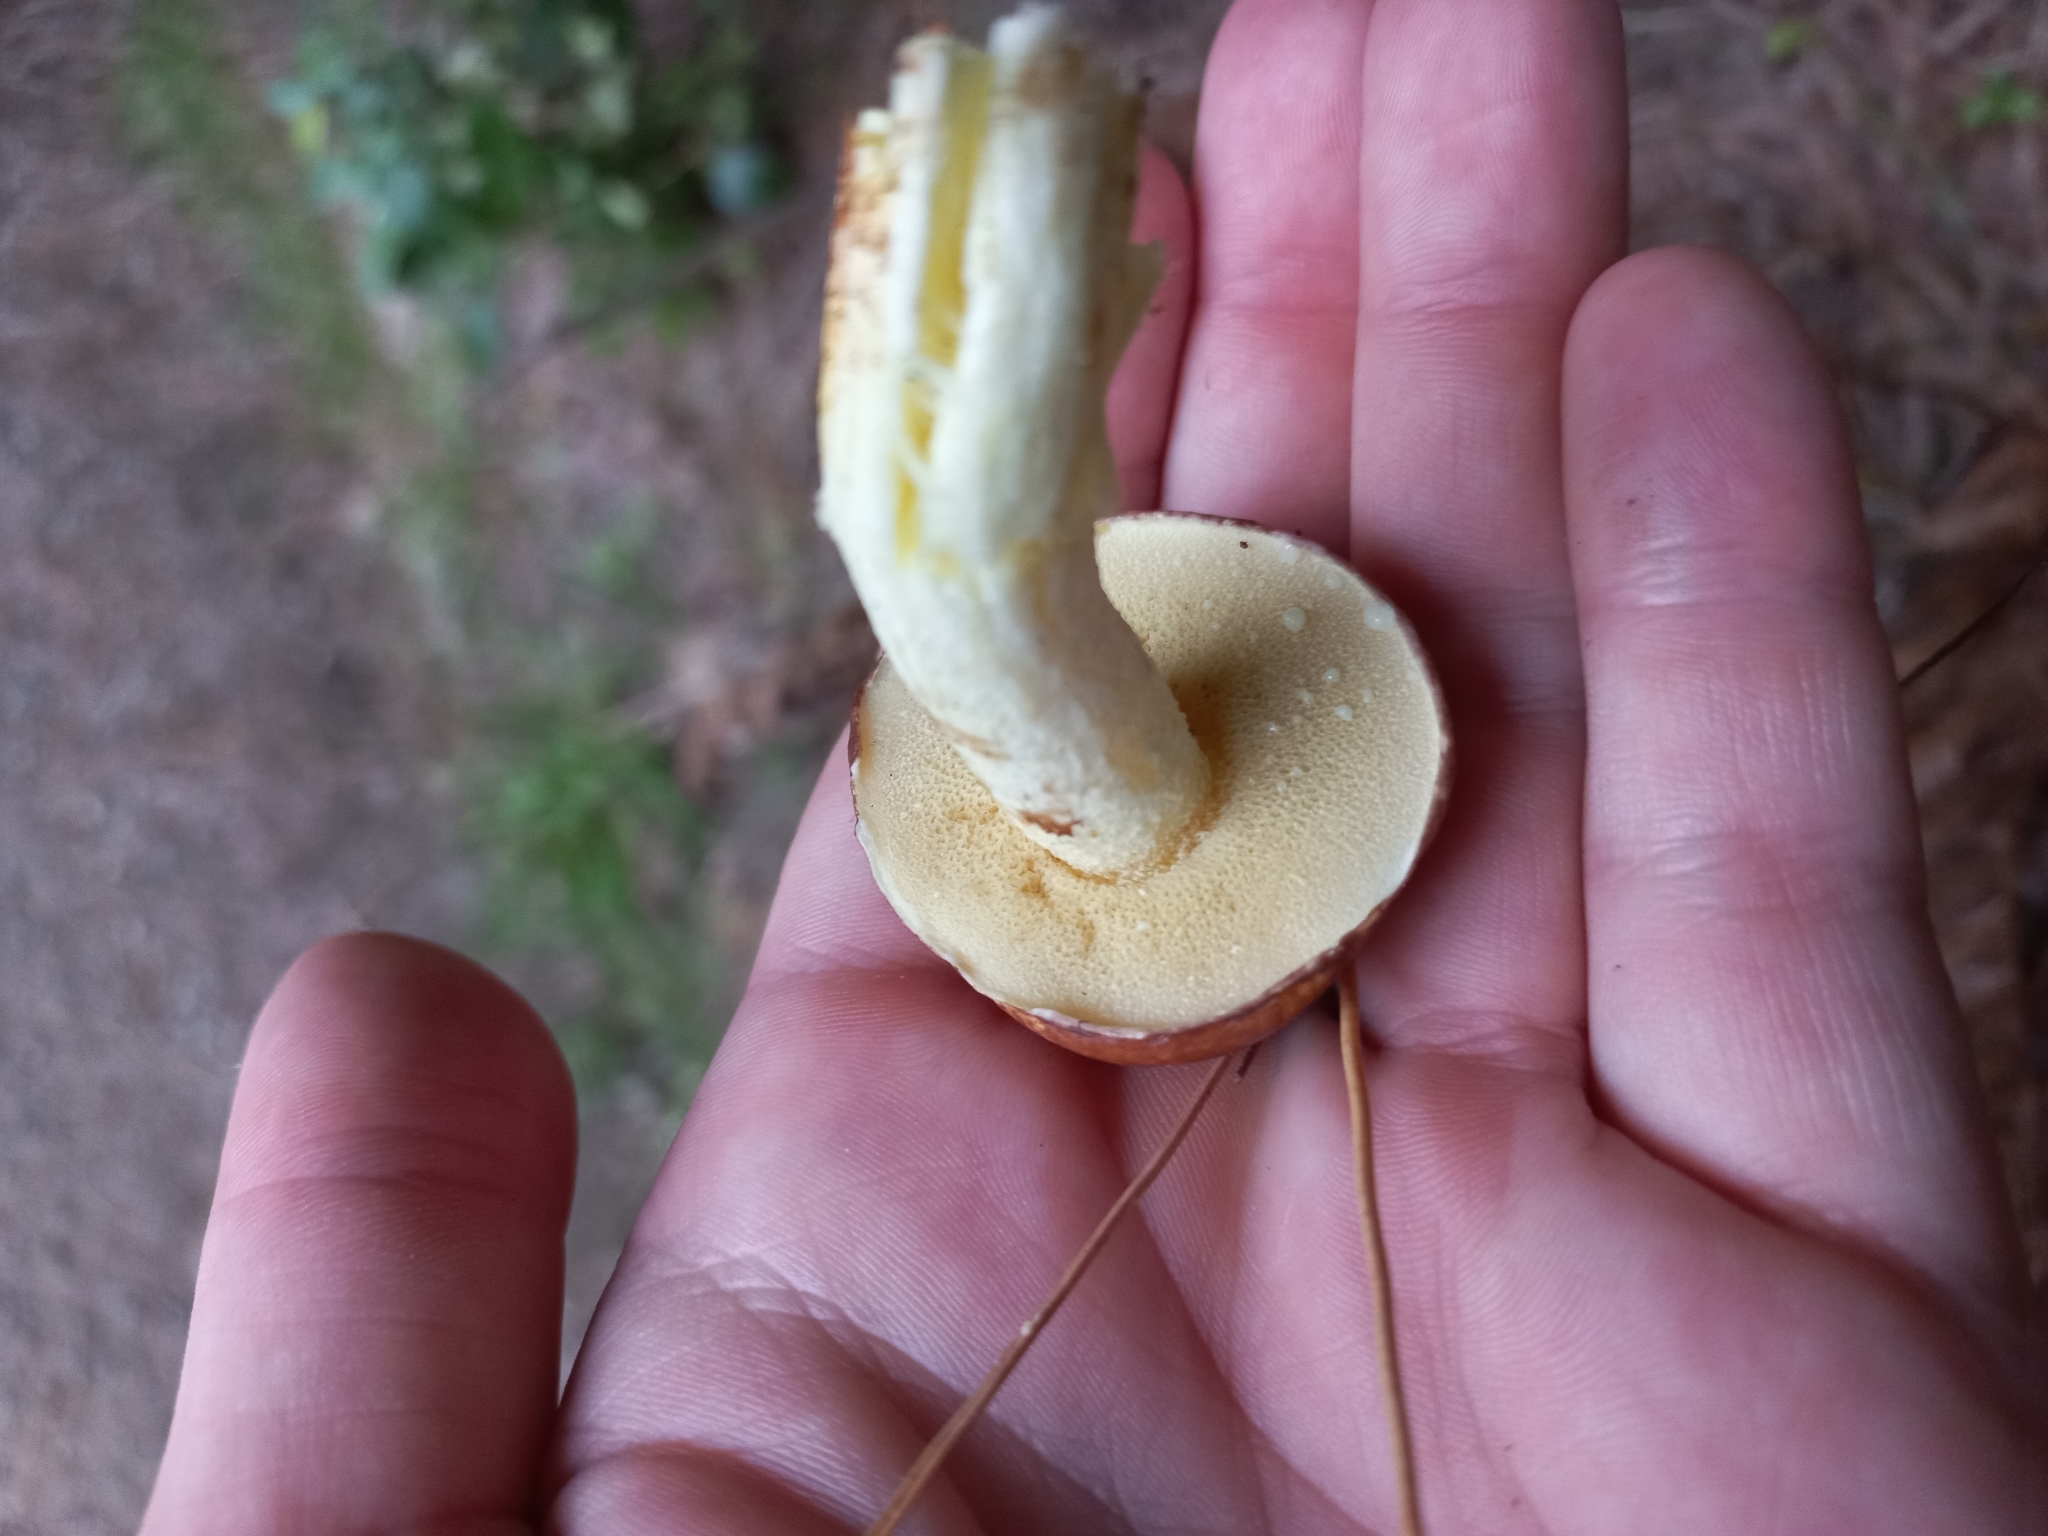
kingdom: Fungi
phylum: Basidiomycota
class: Agaricomycetes
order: Boletales
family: Suillaceae
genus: Suillus
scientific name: Suillus granulatus
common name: Weeping bolete
